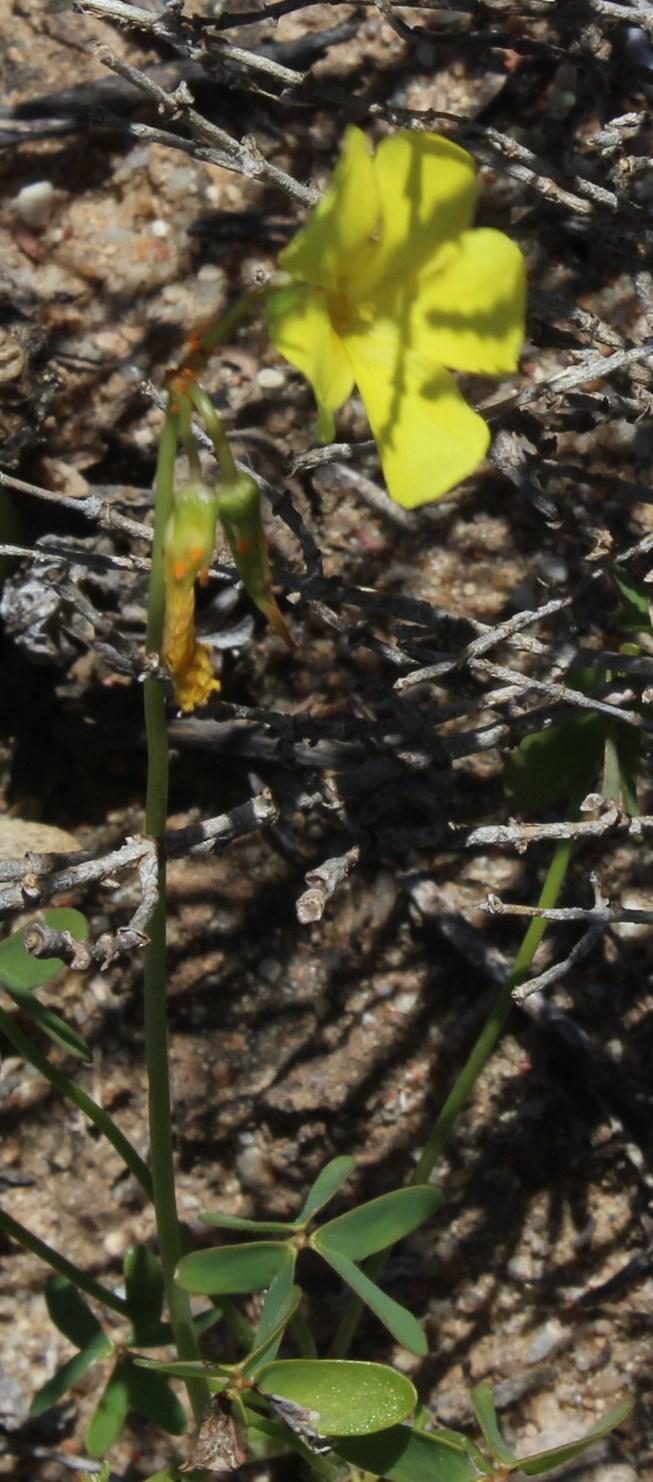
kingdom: Plantae
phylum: Tracheophyta
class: Magnoliopsida
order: Oxalidales
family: Oxalidaceae
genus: Oxalis
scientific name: Oxalis pes-caprae
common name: Bermuda-buttercup
